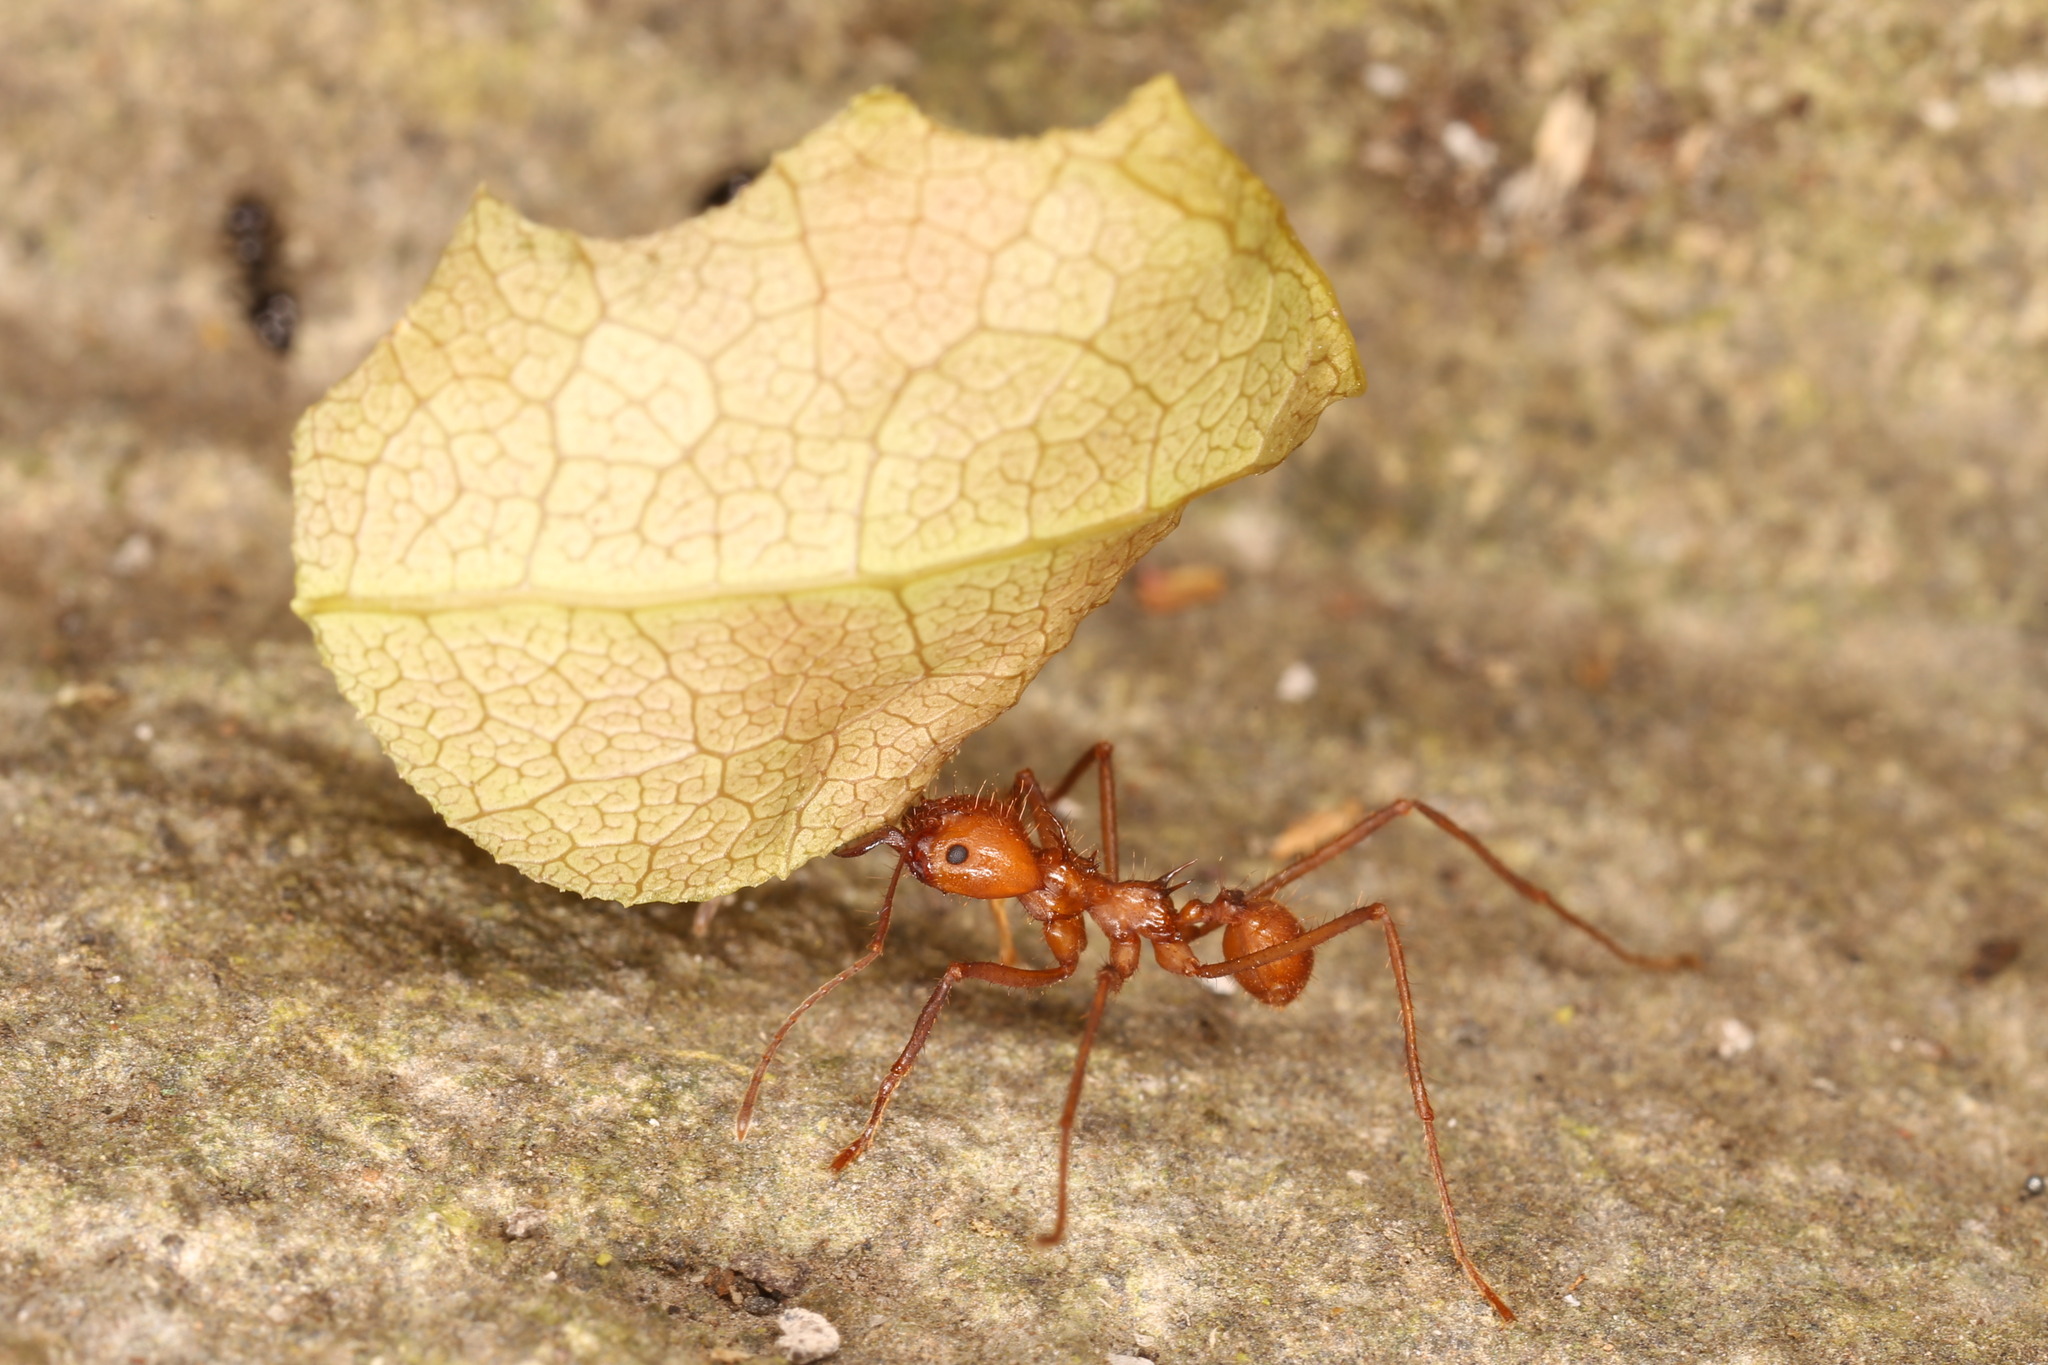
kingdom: Animalia
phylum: Arthropoda
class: Insecta
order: Hymenoptera
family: Formicidae
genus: Atta
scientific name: Atta cephalotes
